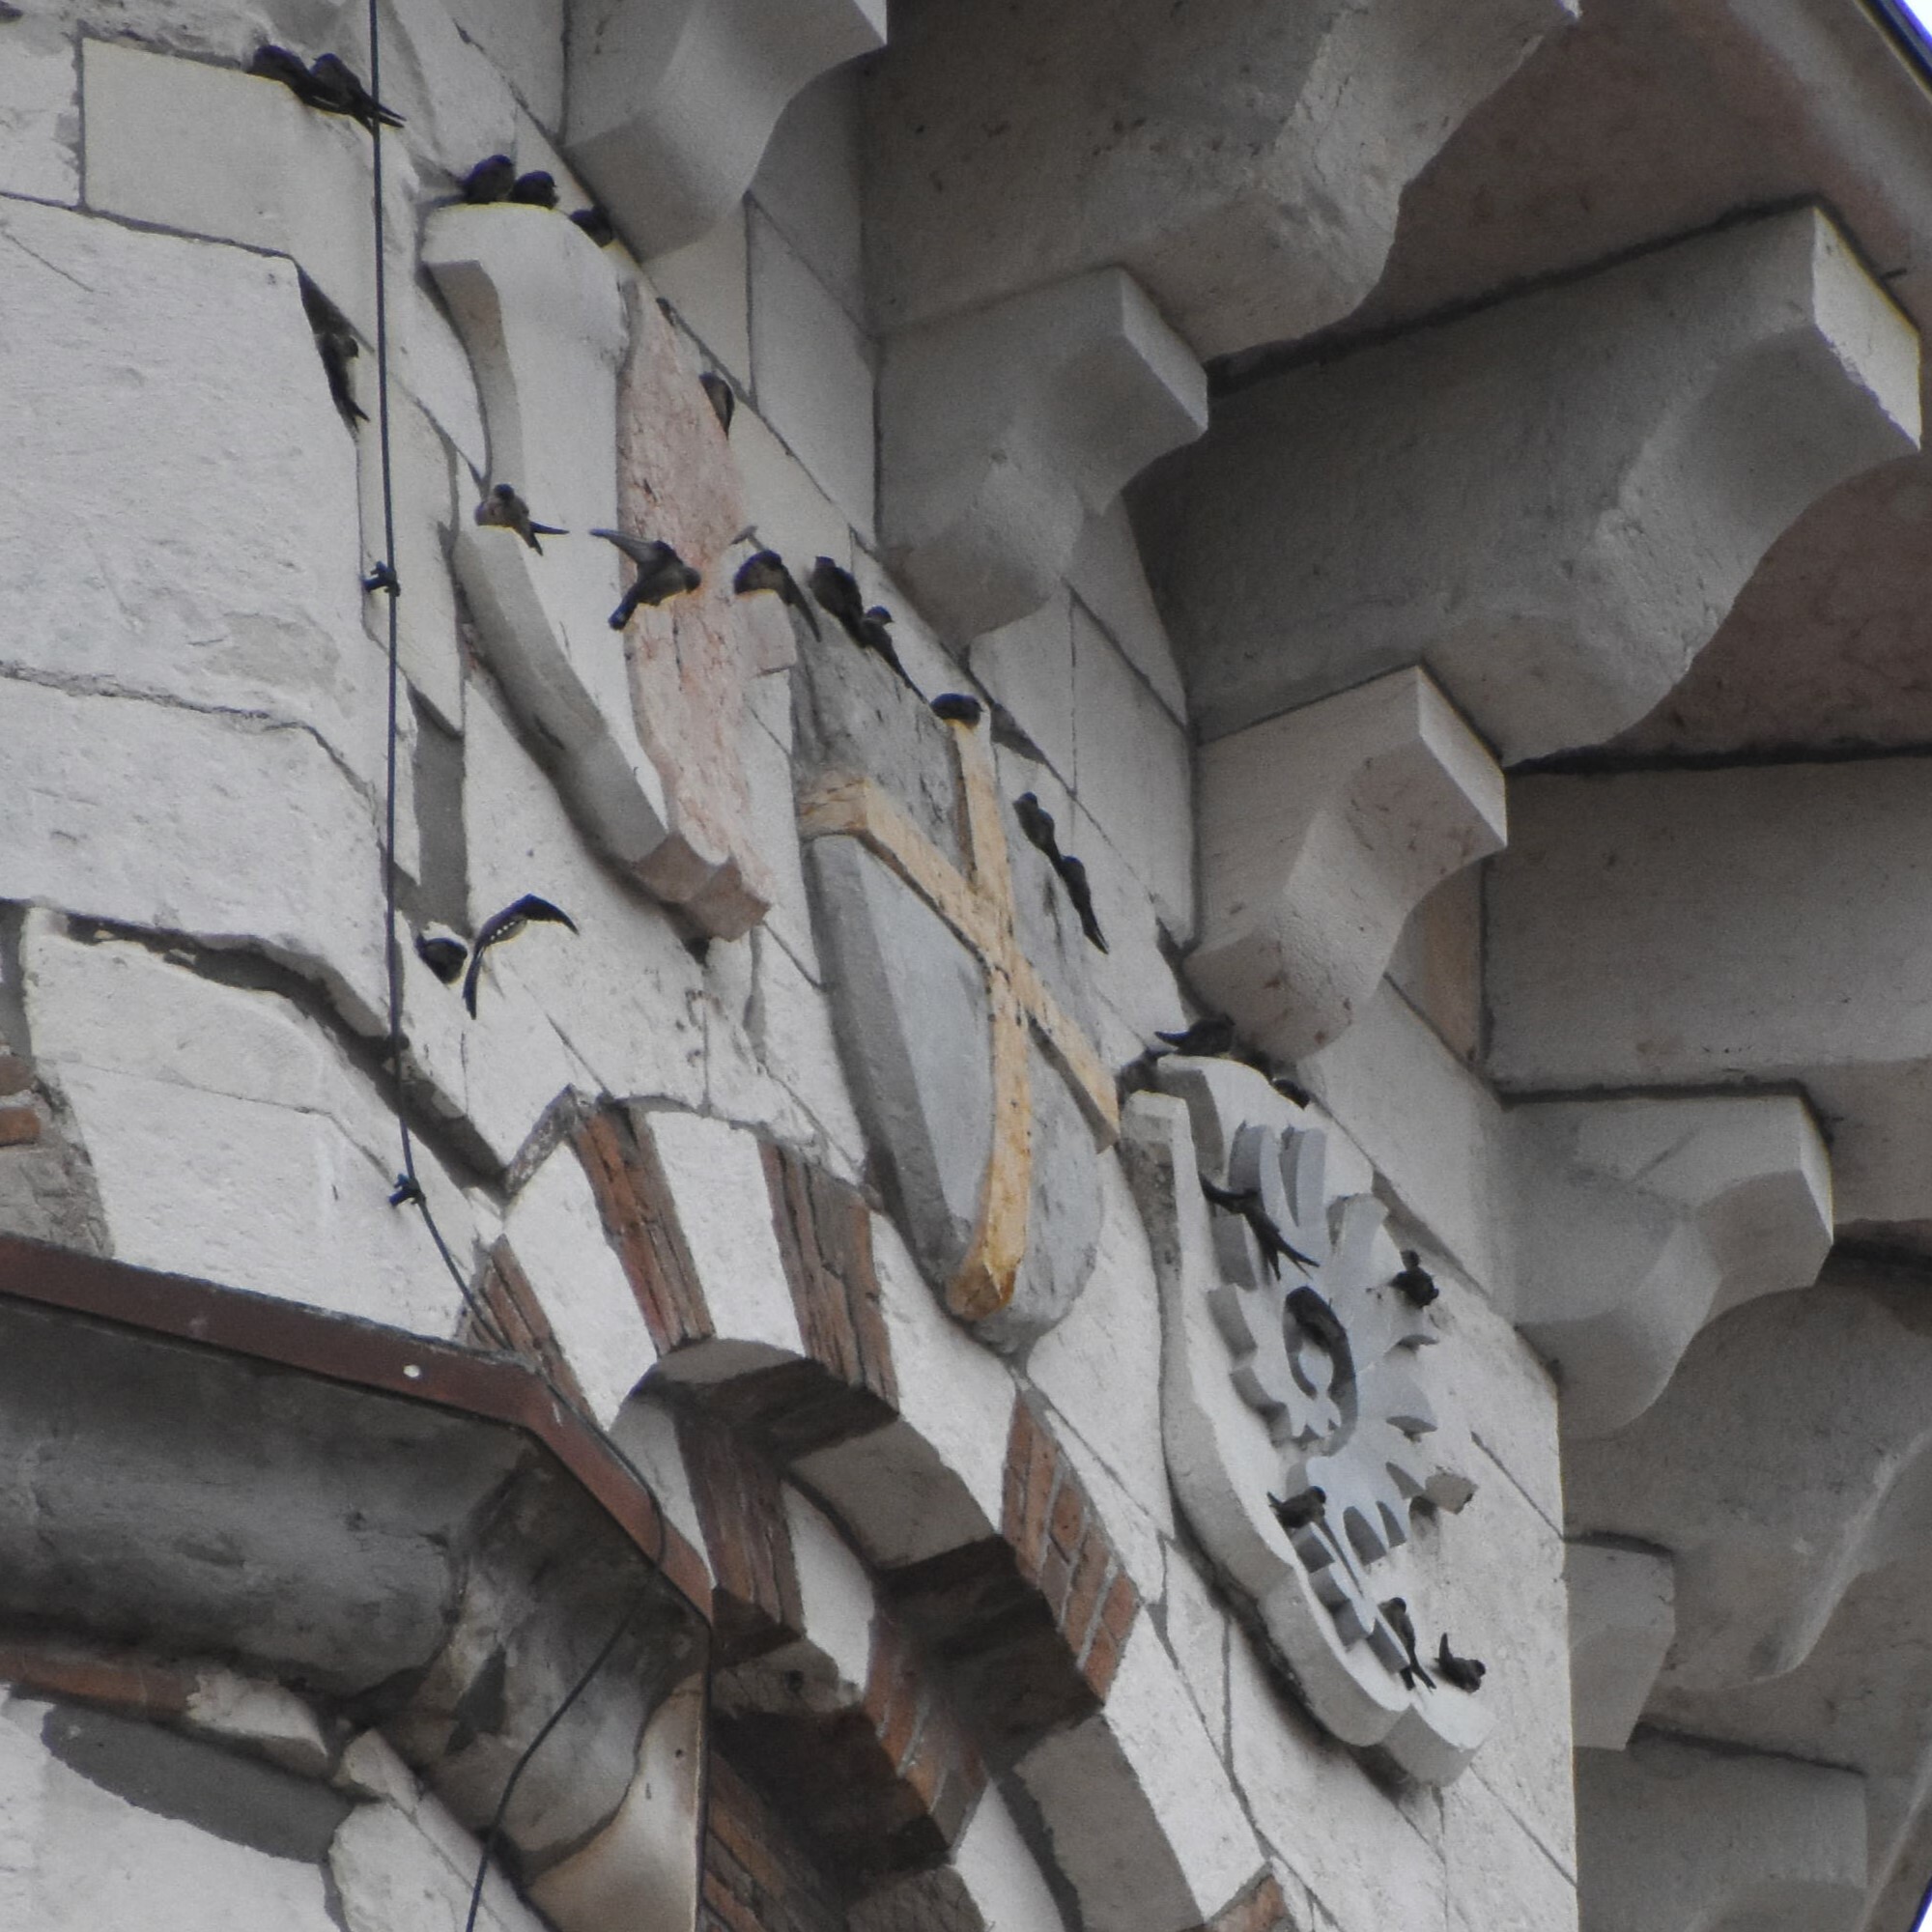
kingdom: Animalia
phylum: Chordata
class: Aves
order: Passeriformes
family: Hirundinidae
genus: Ptyonoprogne
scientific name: Ptyonoprogne rupestris
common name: Eurasian crag martin
